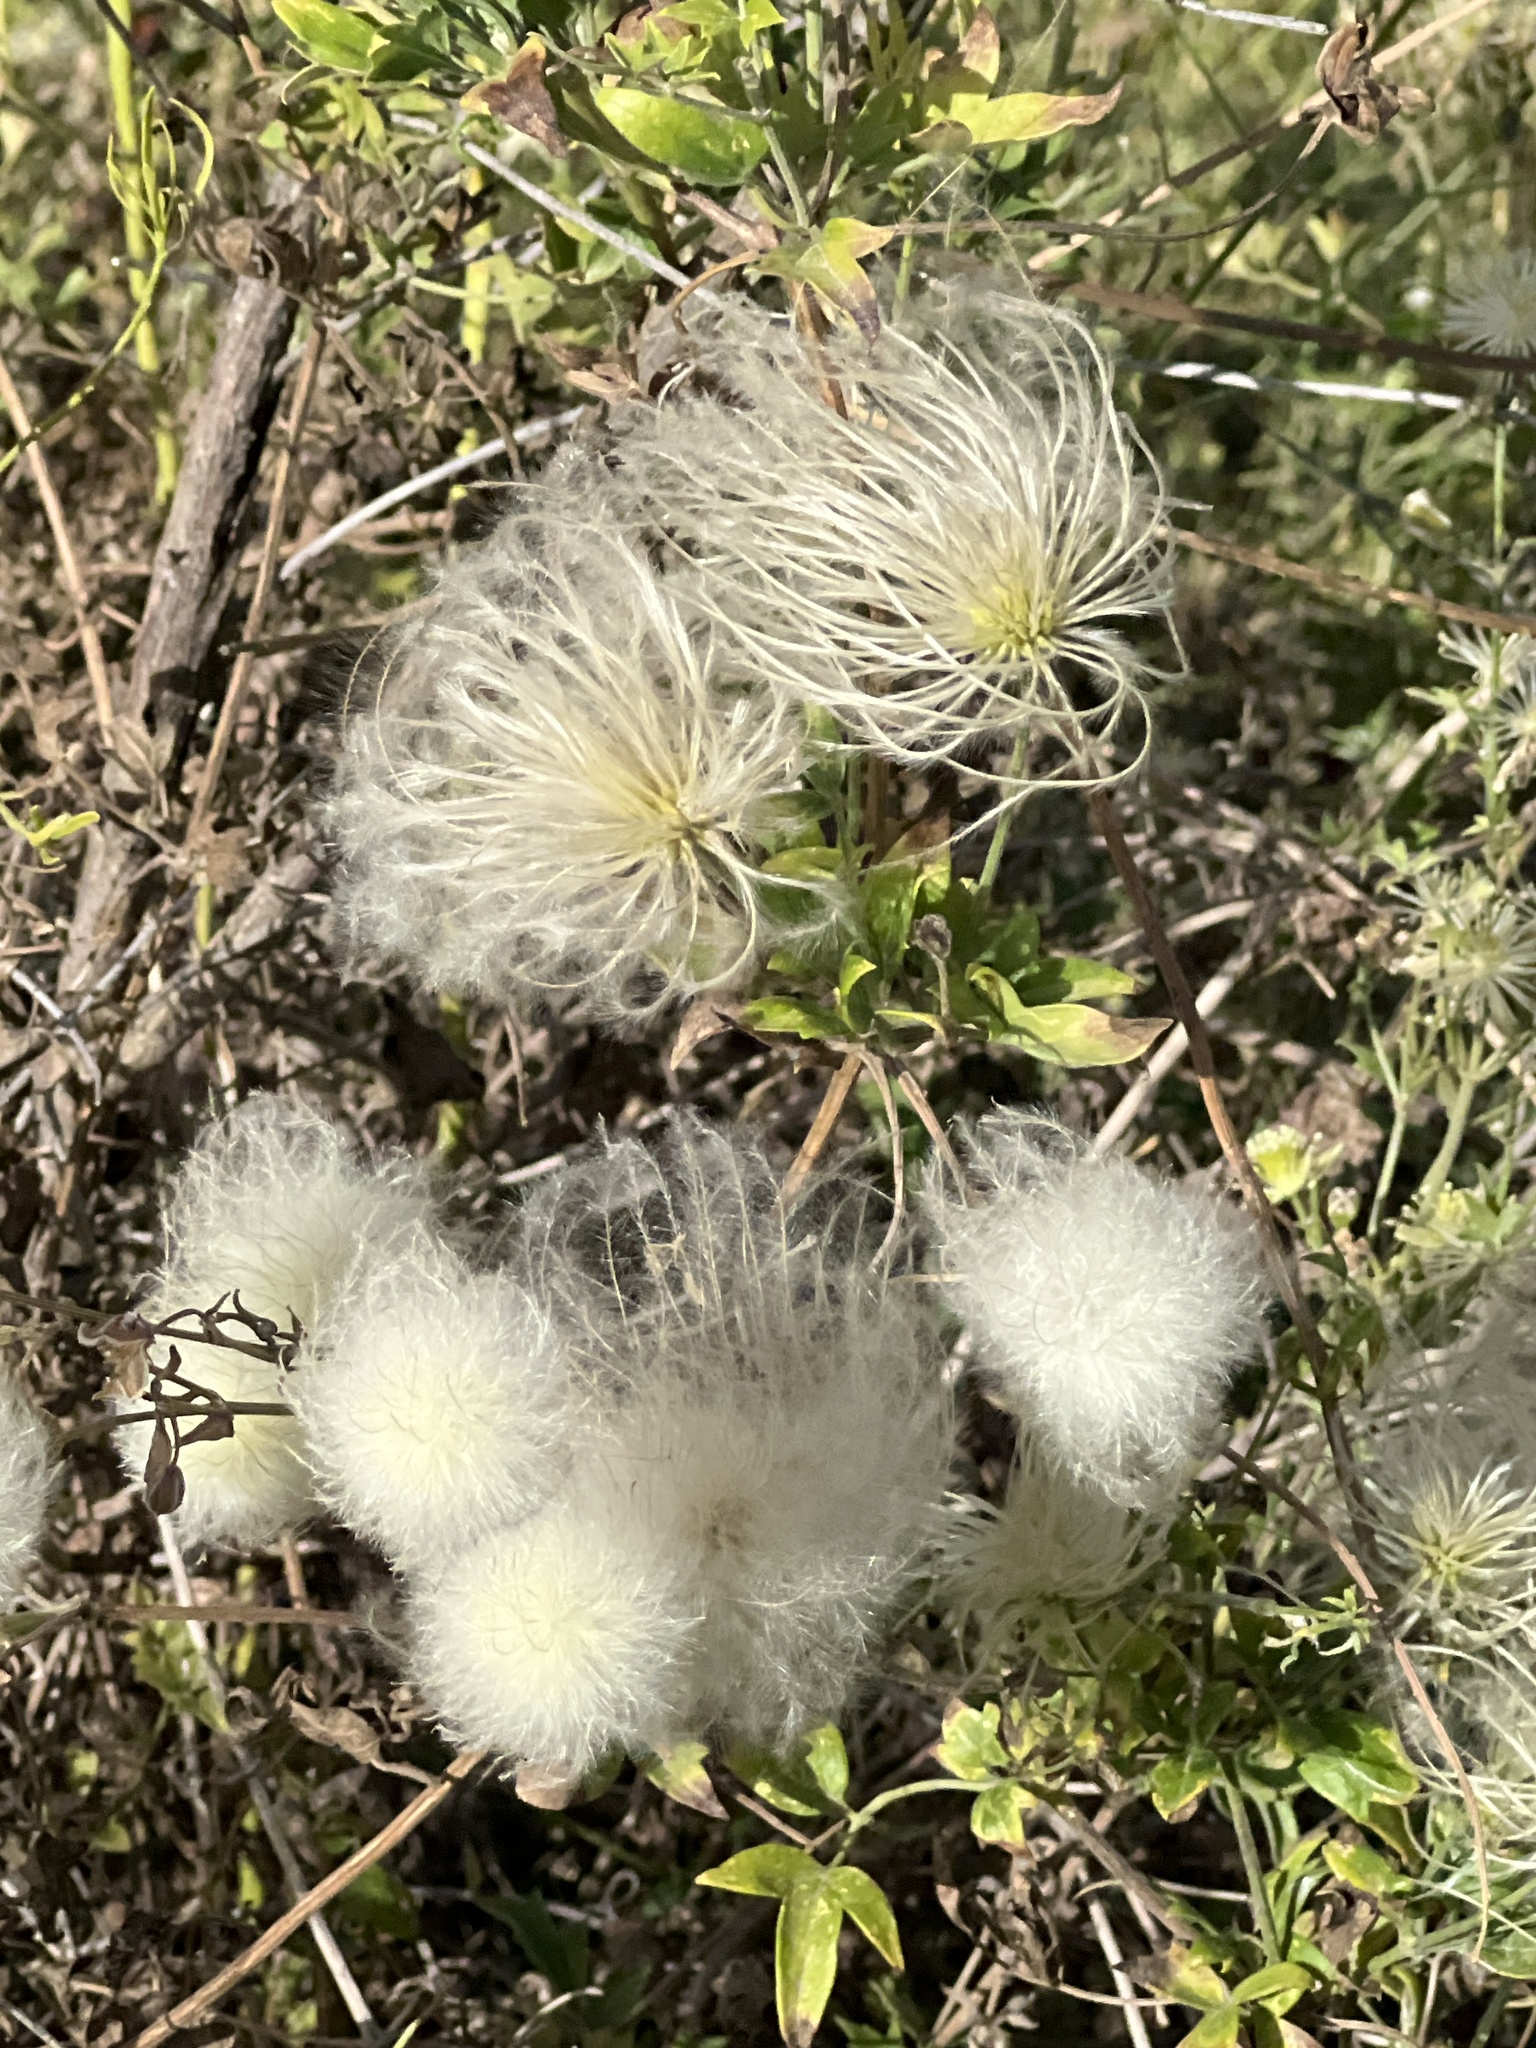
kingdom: Plantae
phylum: Tracheophyta
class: Magnoliopsida
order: Ranunculales
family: Ranunculaceae
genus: Clematis
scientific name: Clematis drummondii
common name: Texas virgin's bower
